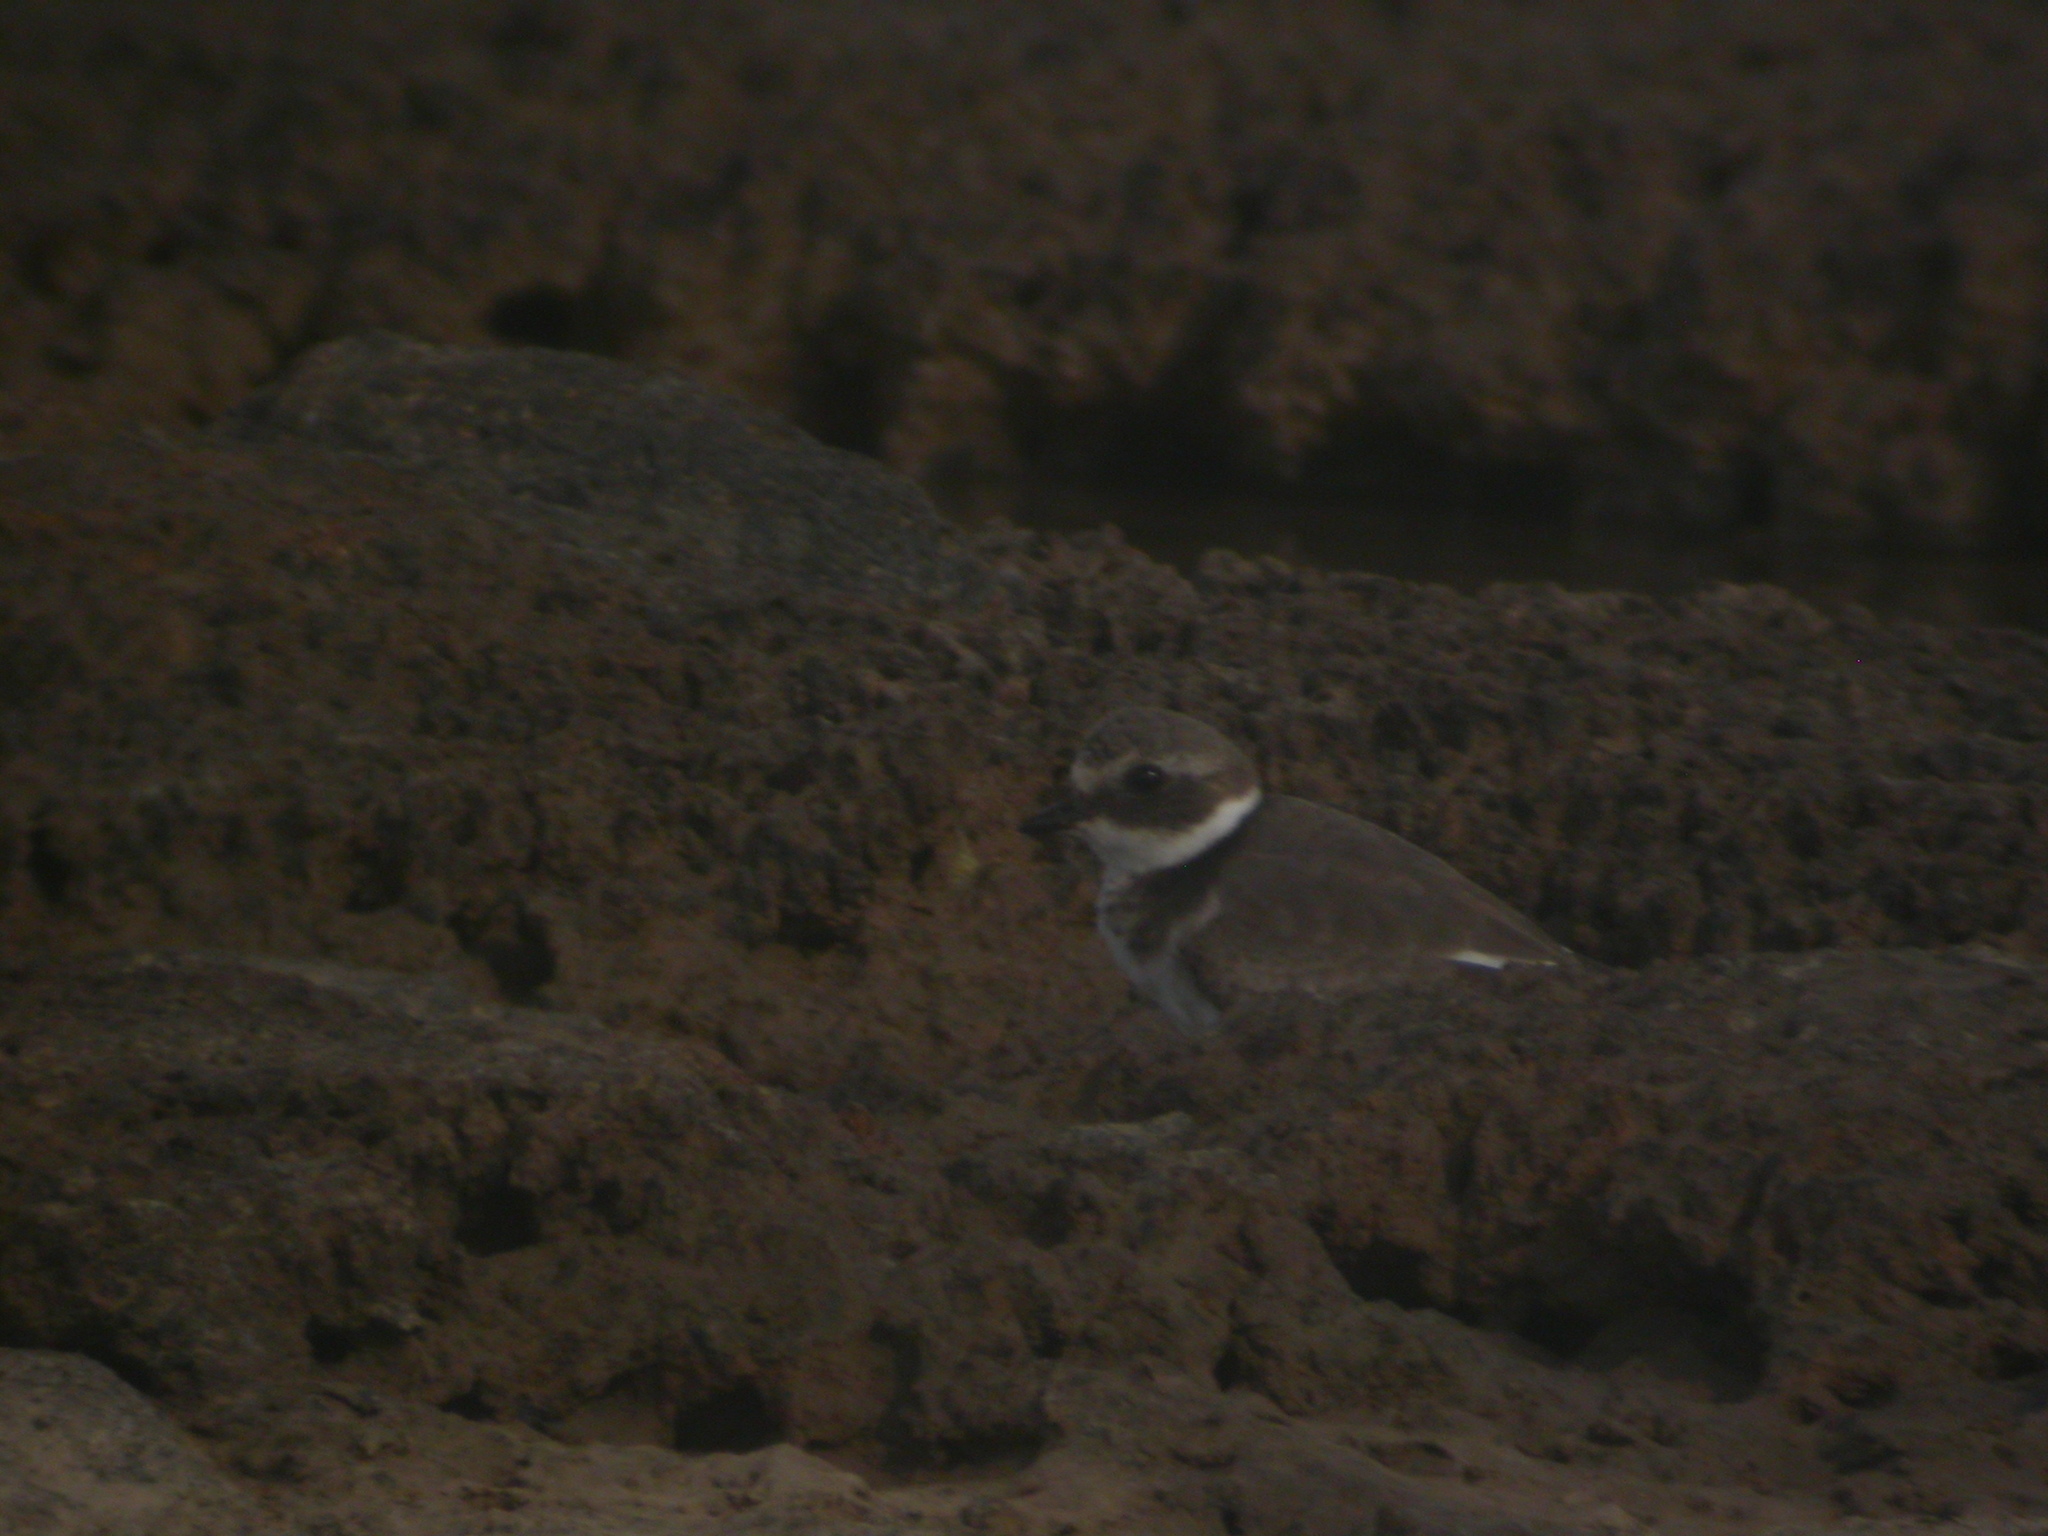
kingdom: Animalia
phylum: Chordata
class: Aves
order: Charadriiformes
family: Charadriidae
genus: Charadrius
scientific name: Charadrius hiaticula
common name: Common ringed plover
